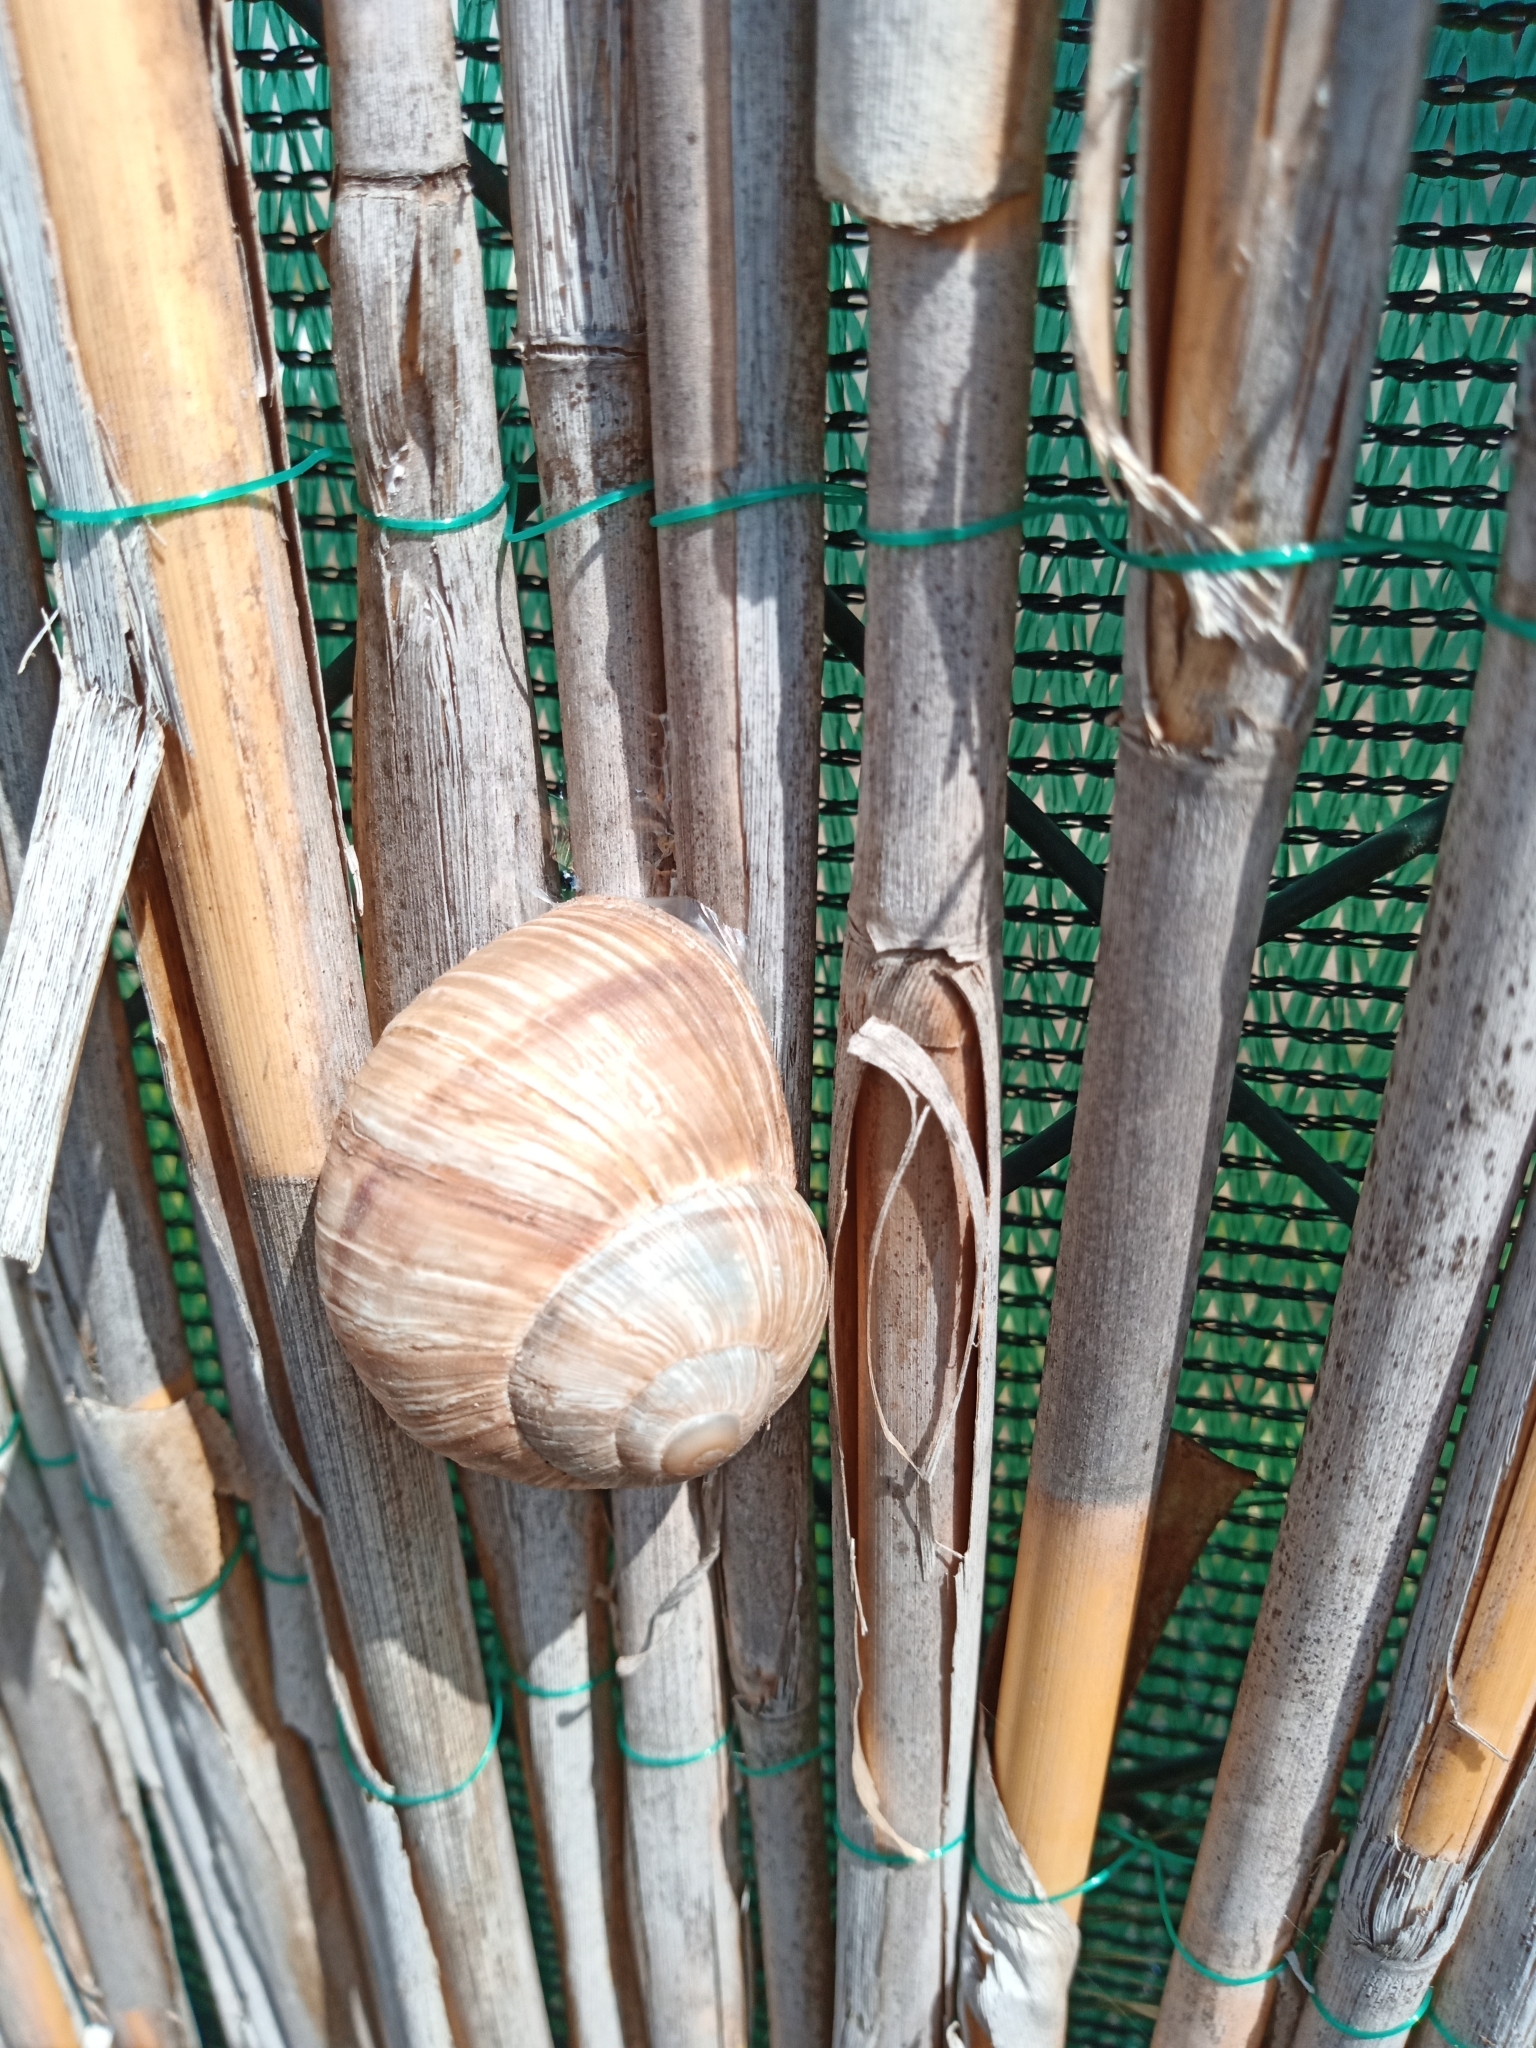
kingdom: Animalia
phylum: Mollusca
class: Gastropoda
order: Stylommatophora
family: Helicidae
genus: Helix
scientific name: Helix pomatia
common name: Roman snail
